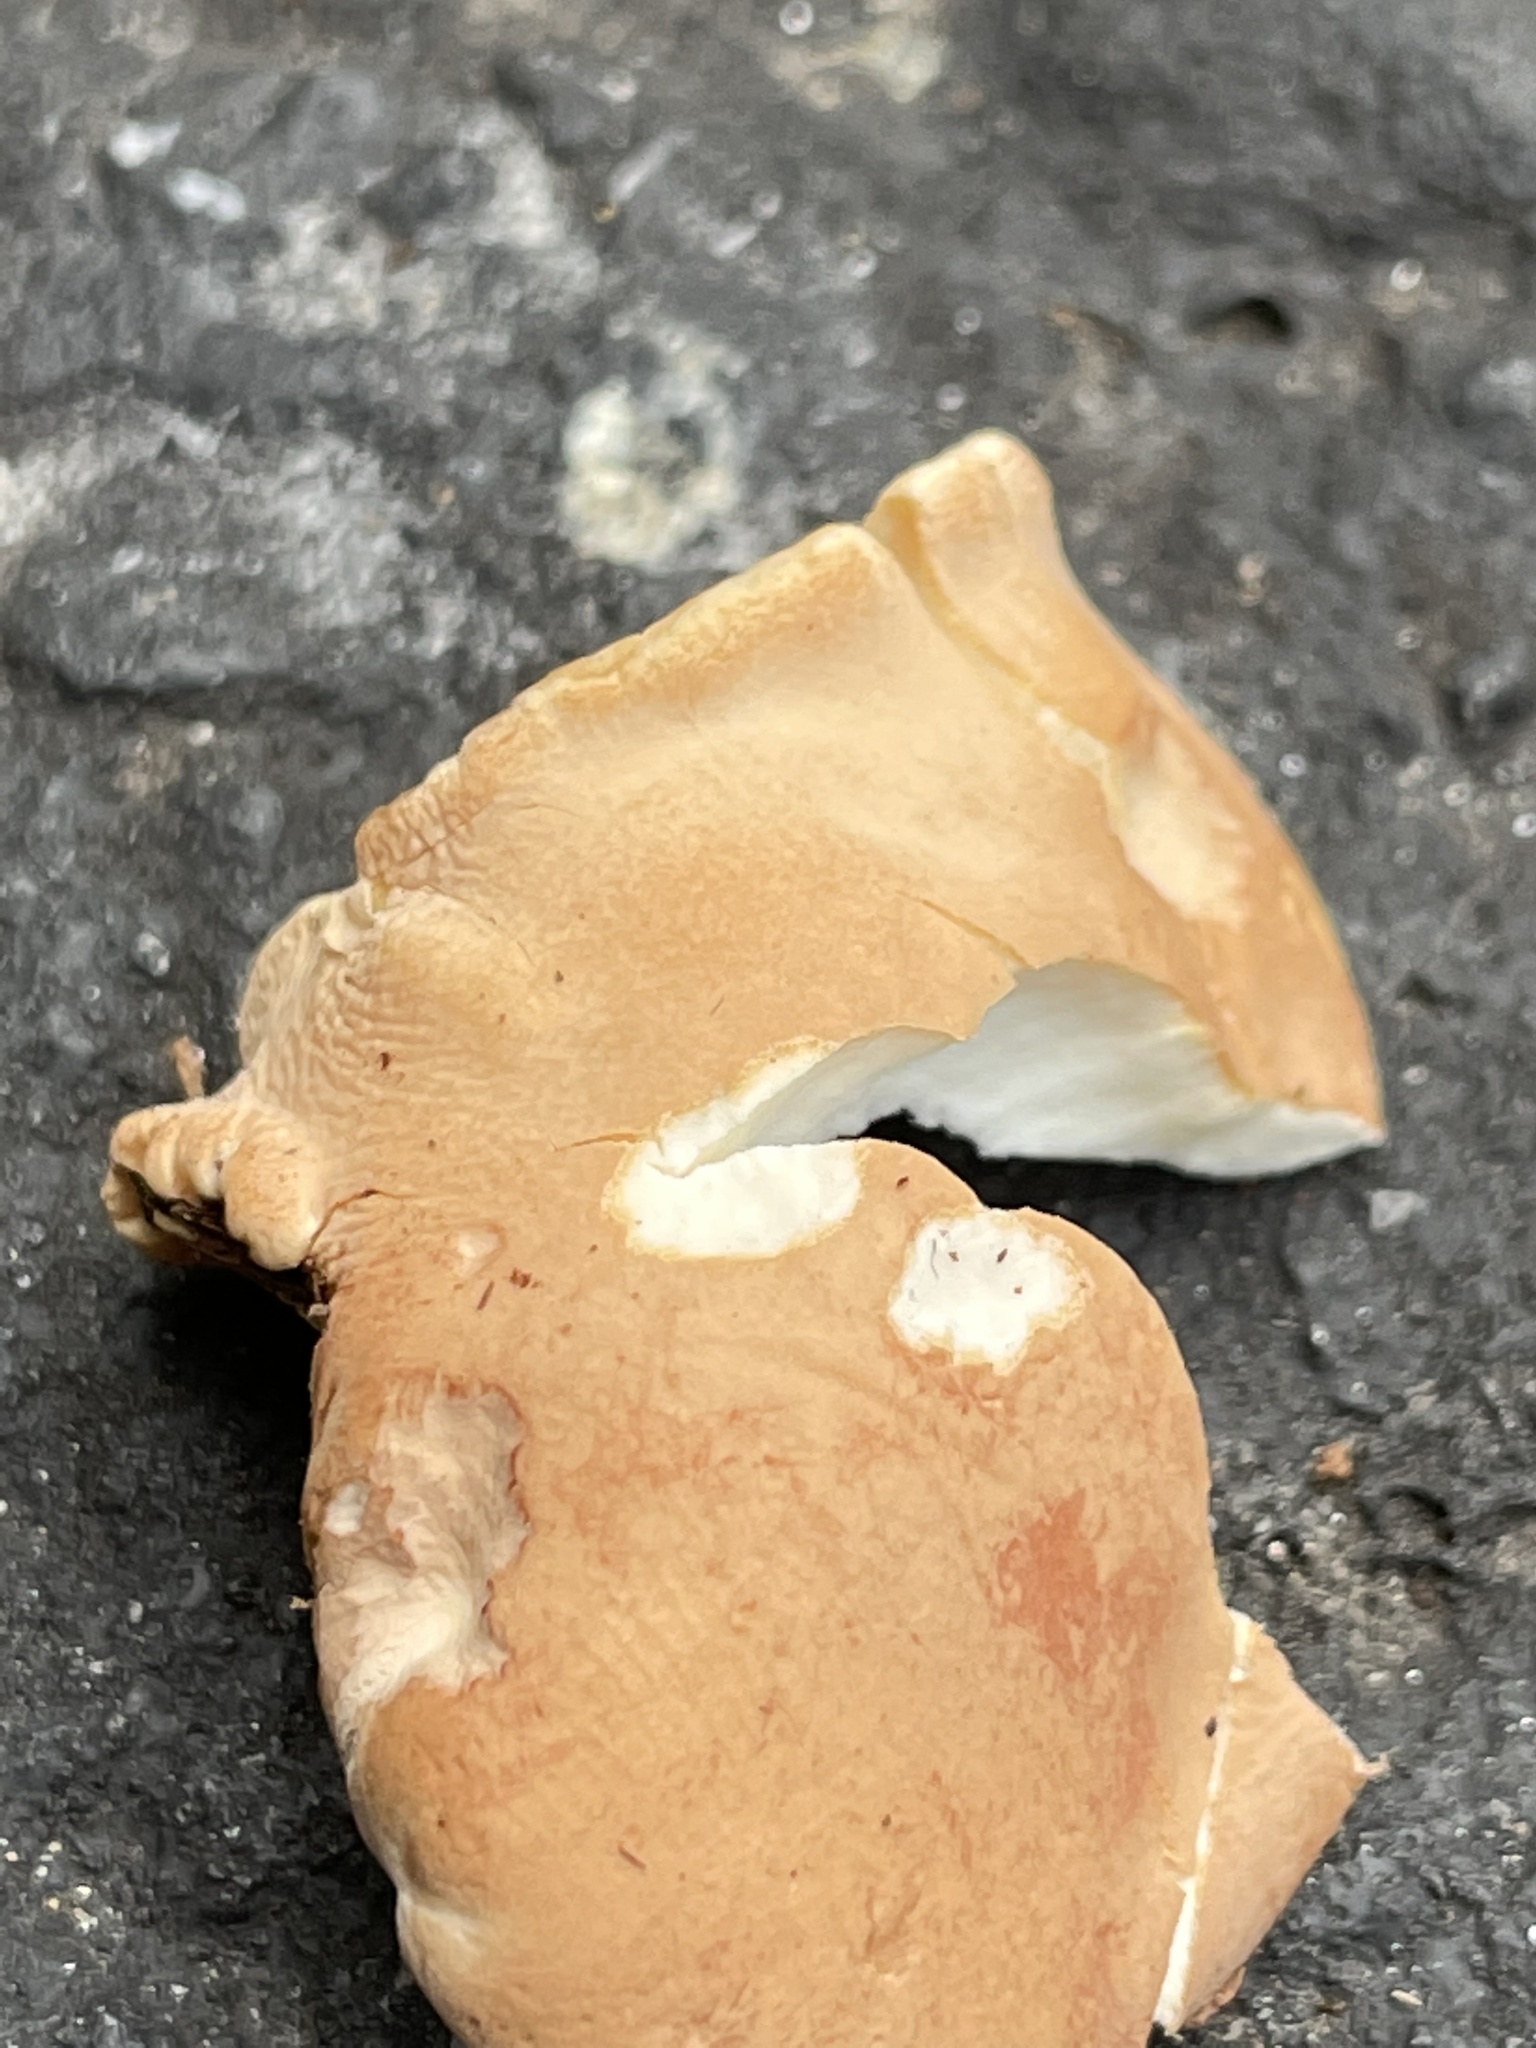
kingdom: Fungi
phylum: Ascomycota
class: Sordariomycetes
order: Hypocreales
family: Hypocreaceae
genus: Trichoderma
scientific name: Trichoderma peltatum
